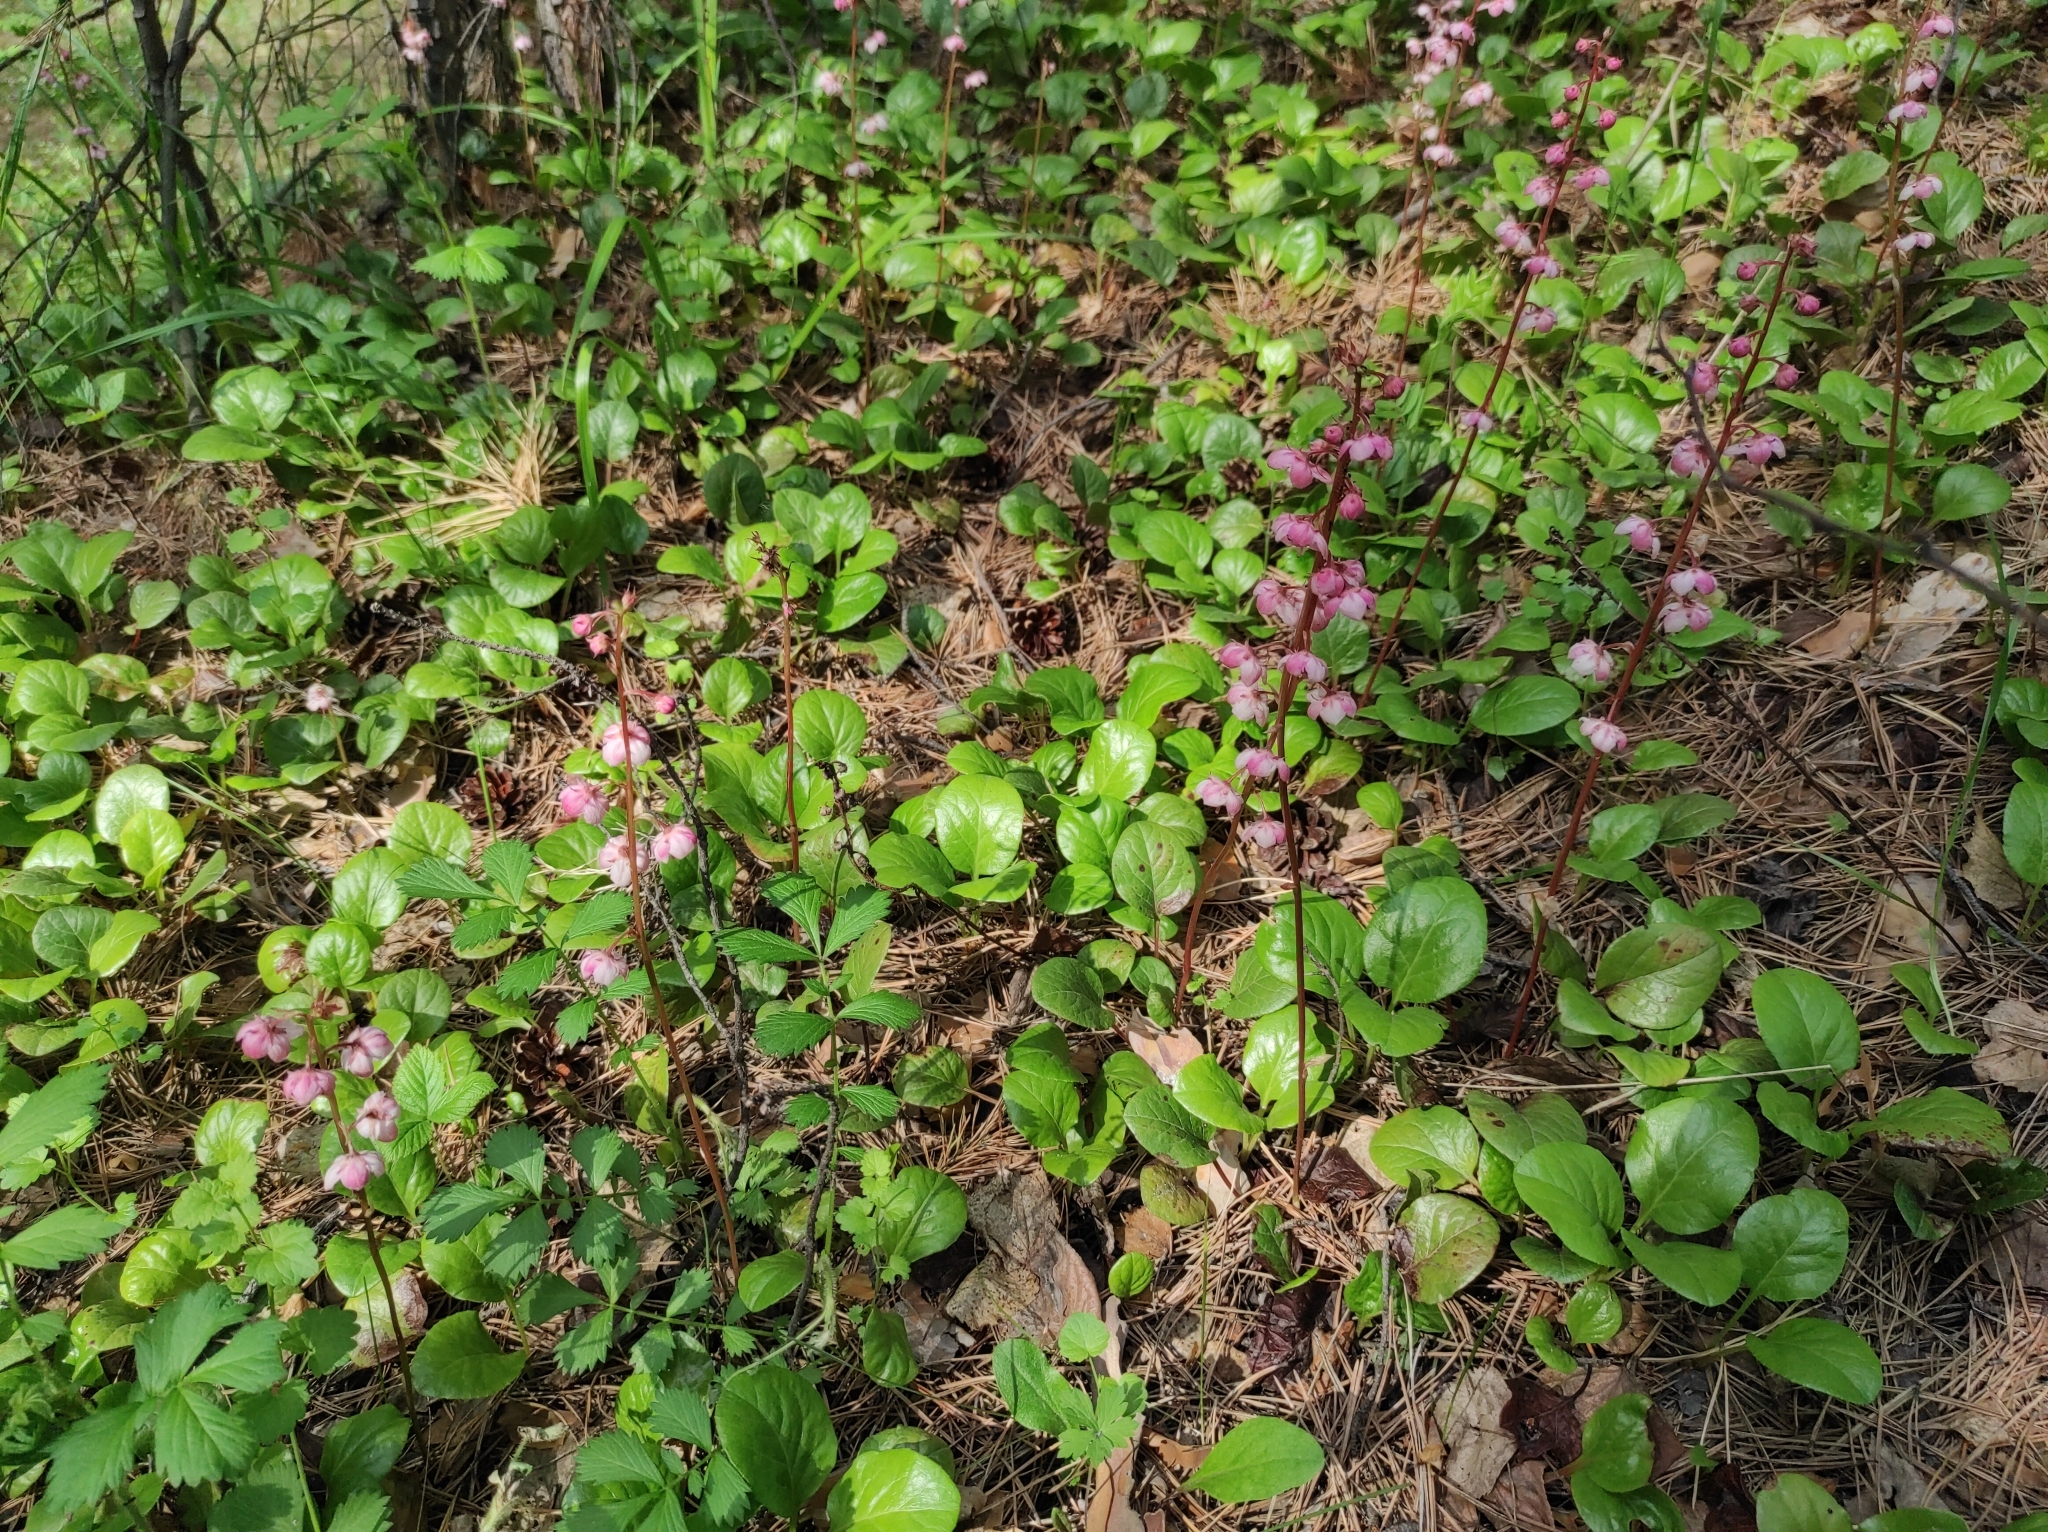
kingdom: Plantae
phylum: Tracheophyta
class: Magnoliopsida
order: Ericales
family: Ericaceae
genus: Pyrola
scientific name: Pyrola asarifolia
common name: Bog wintergreen
